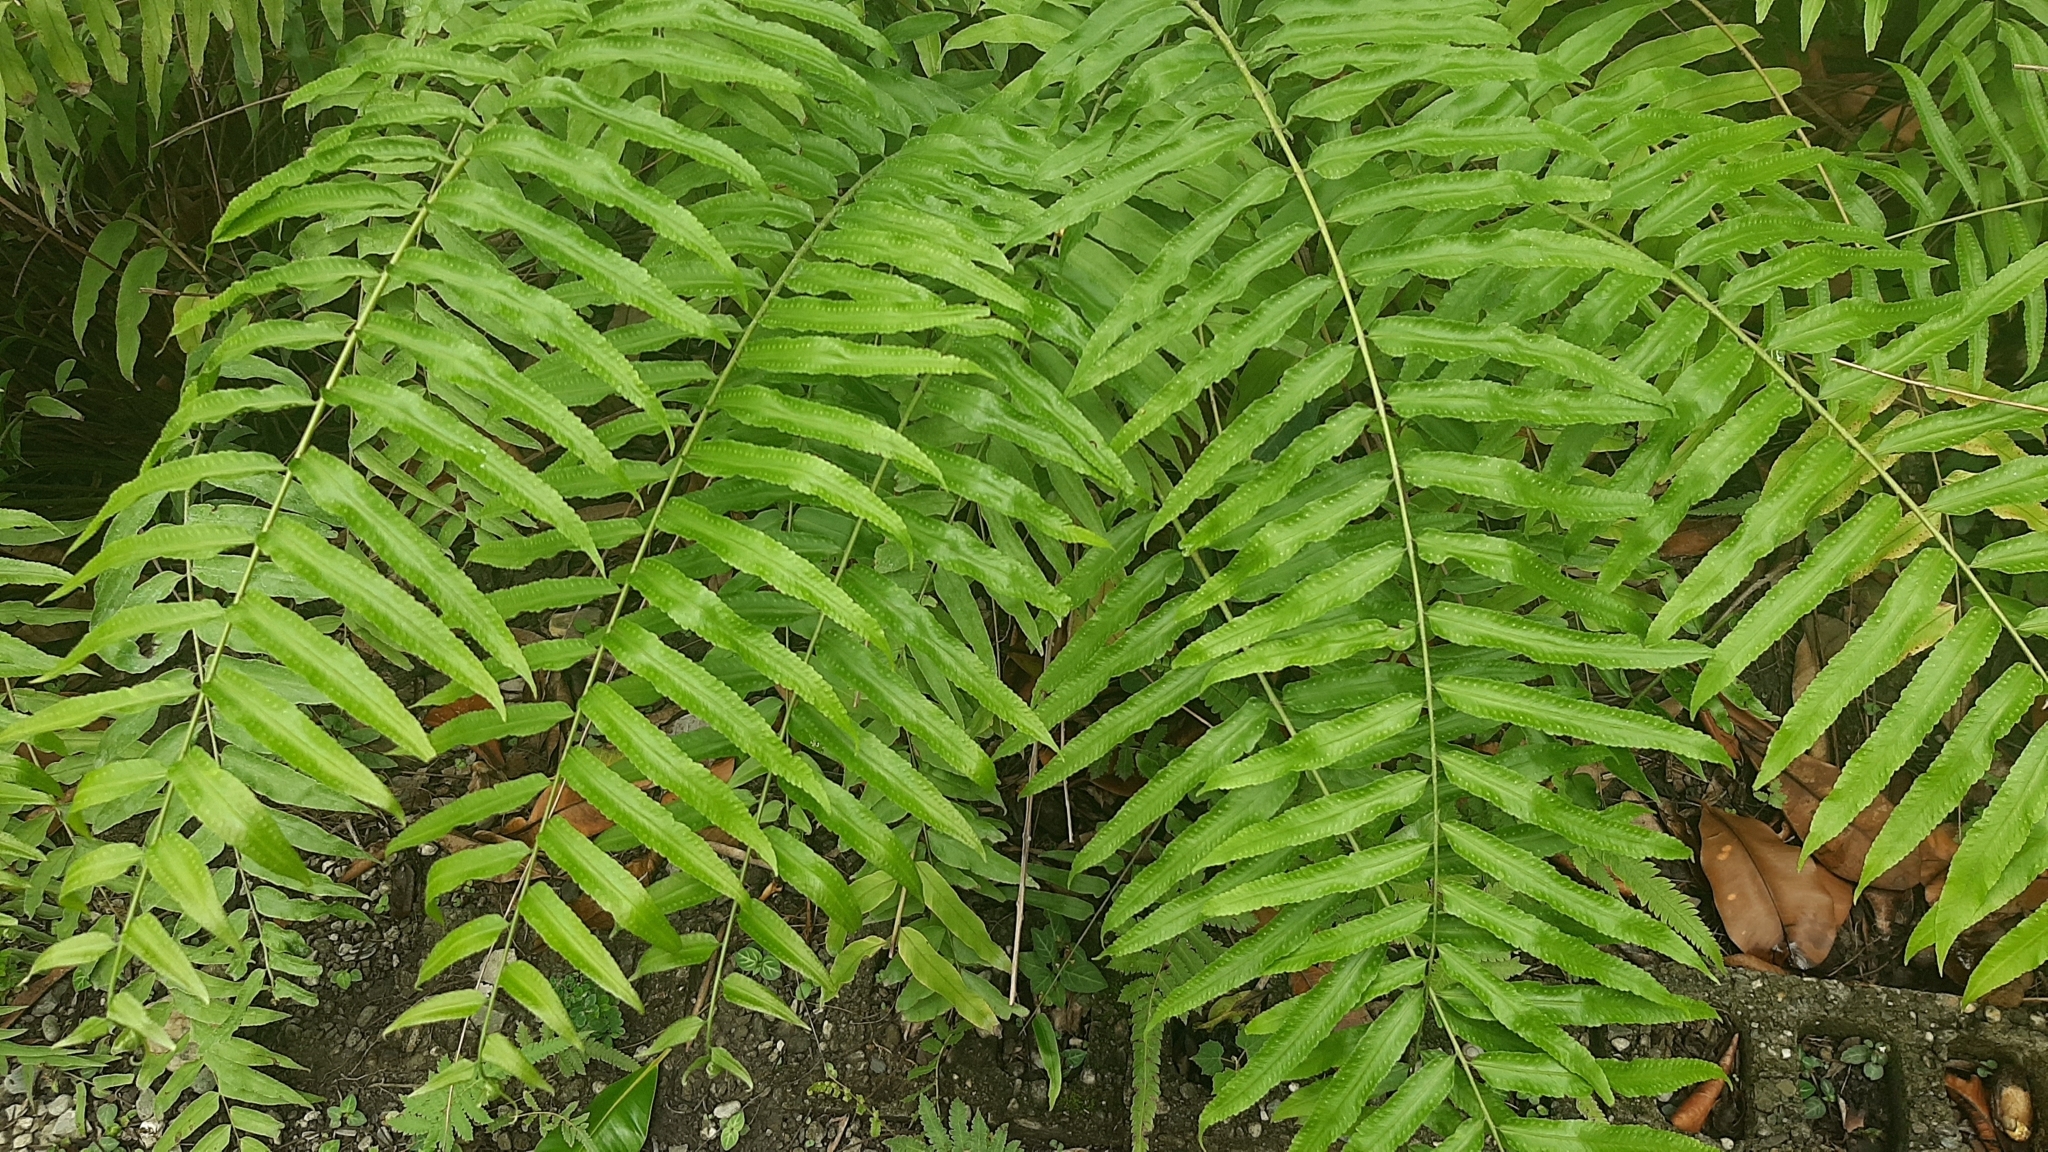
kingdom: Plantae
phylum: Tracheophyta
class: Polypodiopsida
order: Polypodiales
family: Nephrolepidaceae
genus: Nephrolepis
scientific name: Nephrolepis biserrata
